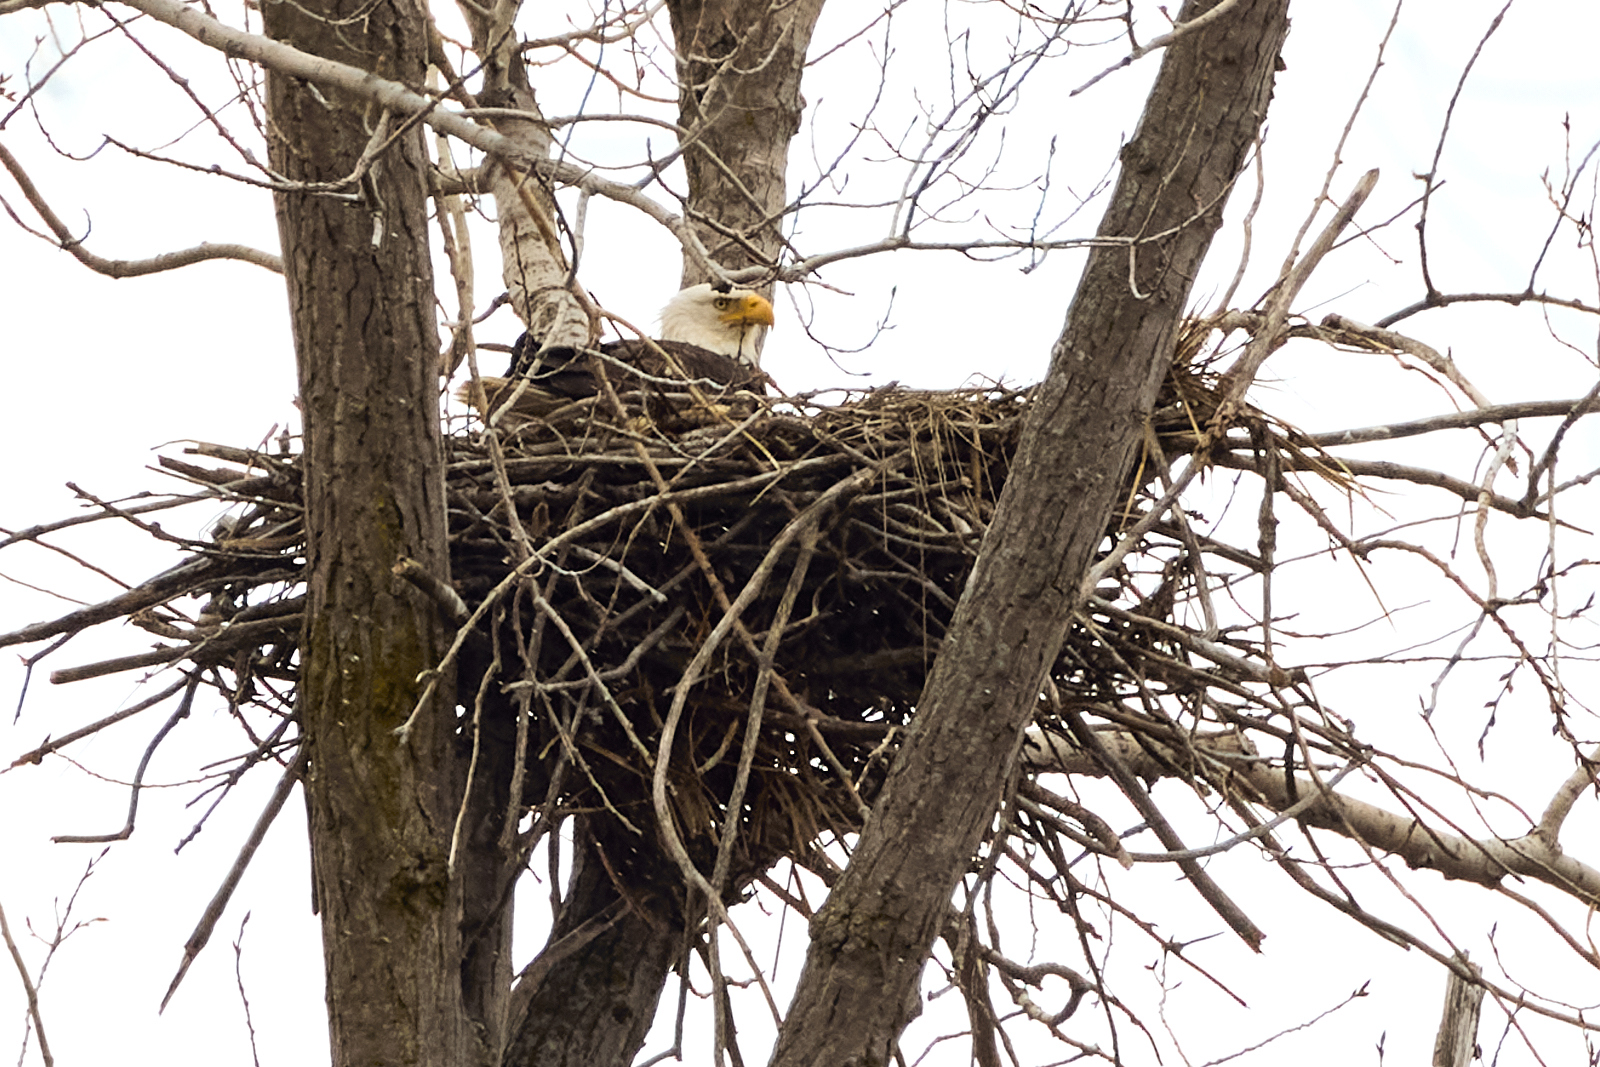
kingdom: Animalia
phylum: Chordata
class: Aves
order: Accipitriformes
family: Accipitridae
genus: Haliaeetus
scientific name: Haliaeetus leucocephalus
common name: Bald eagle
